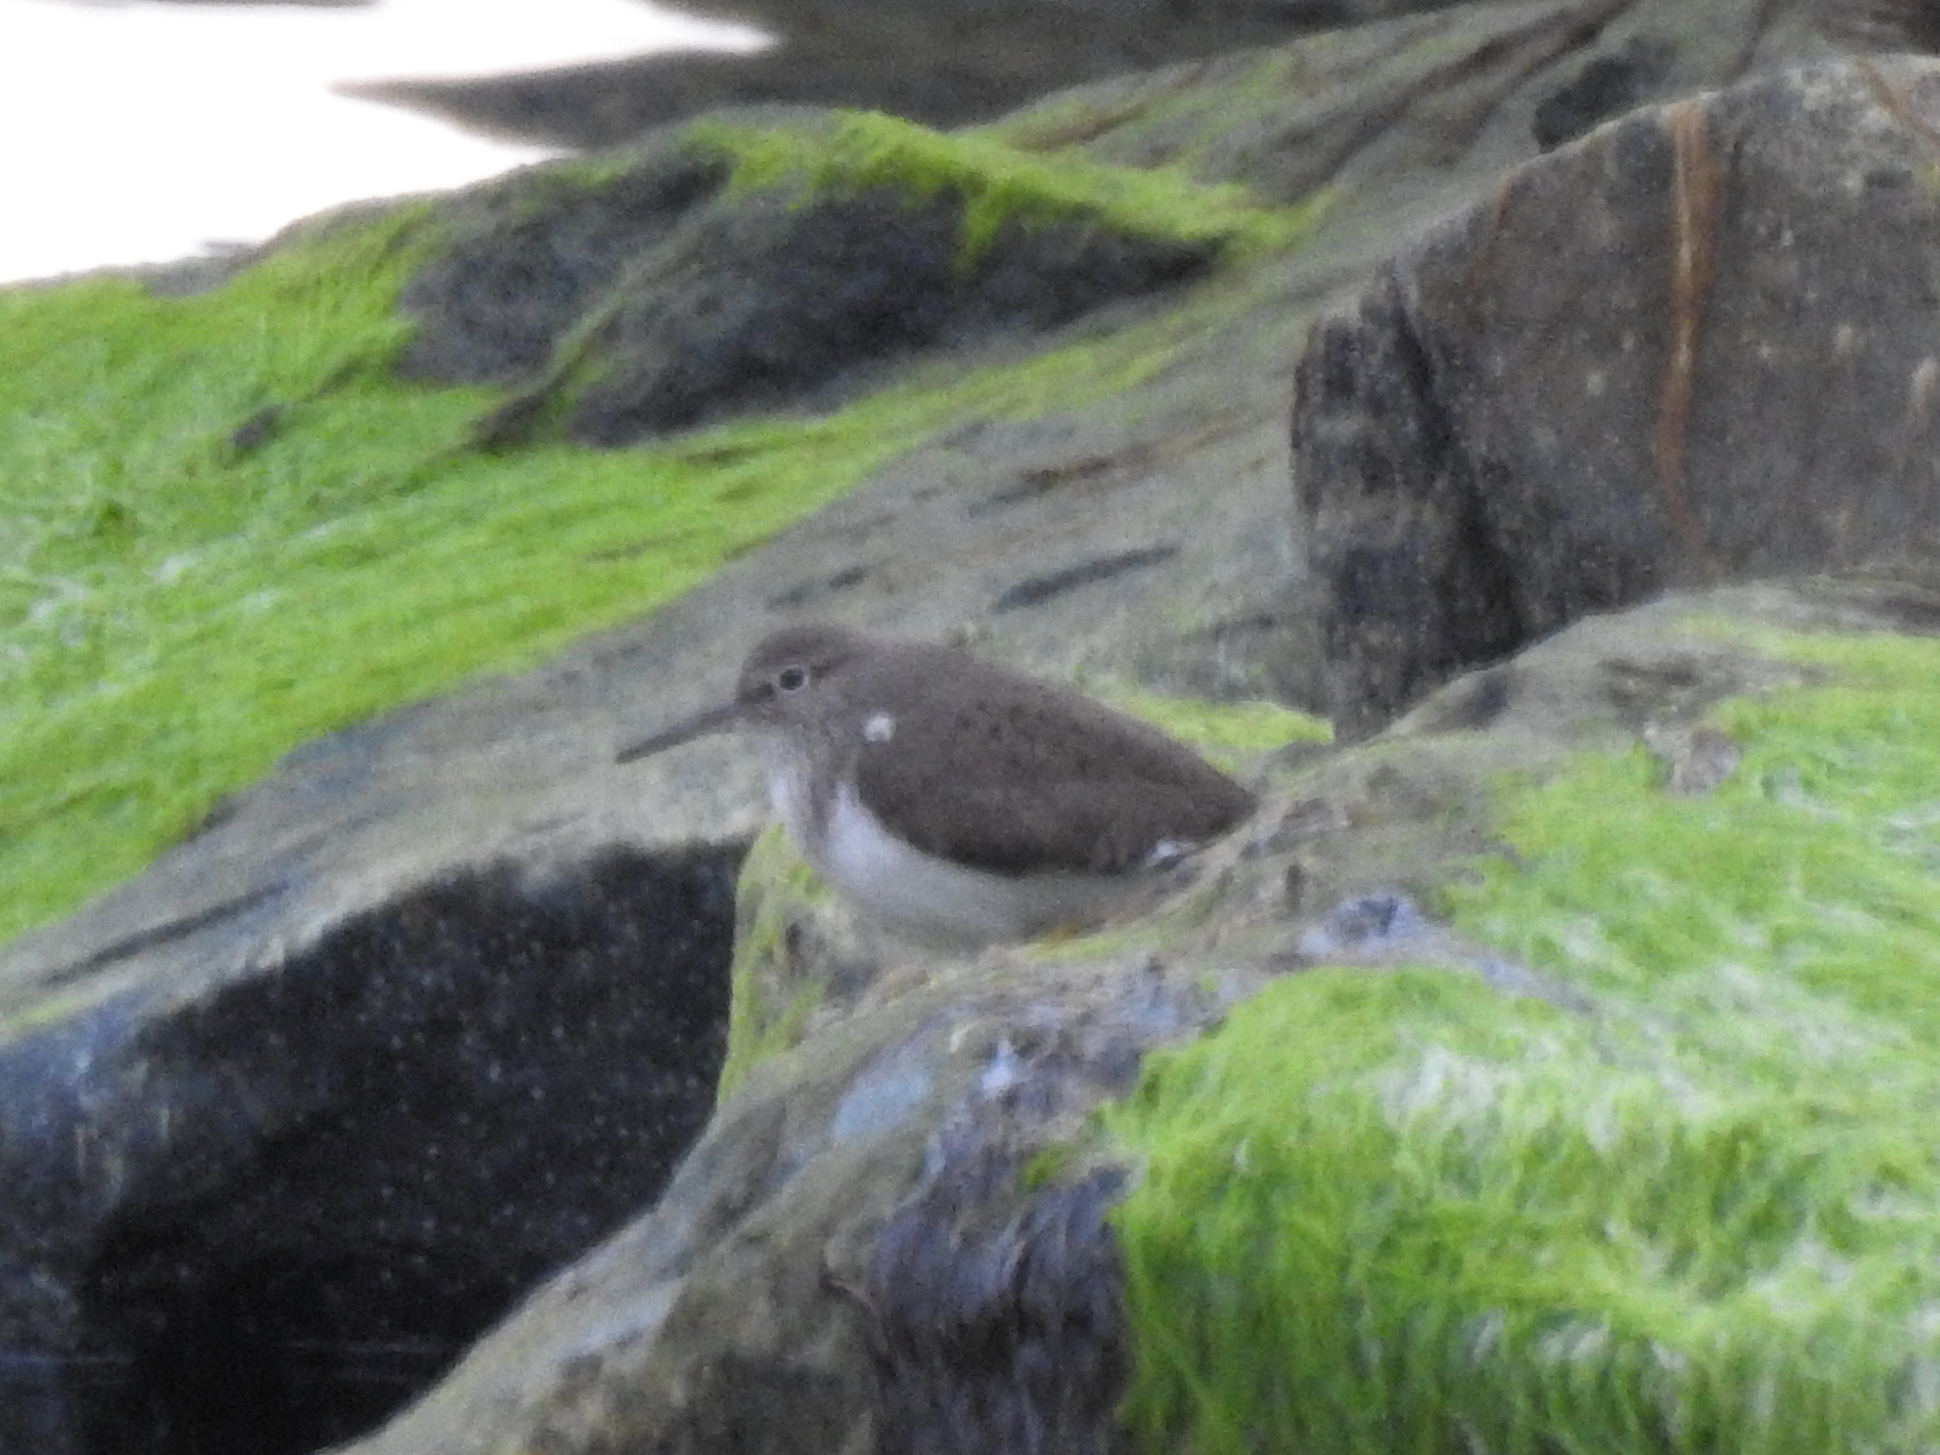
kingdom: Animalia
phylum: Chordata
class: Aves
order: Charadriiformes
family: Scolopacidae
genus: Actitis
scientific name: Actitis hypoleucos
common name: Common sandpiper
